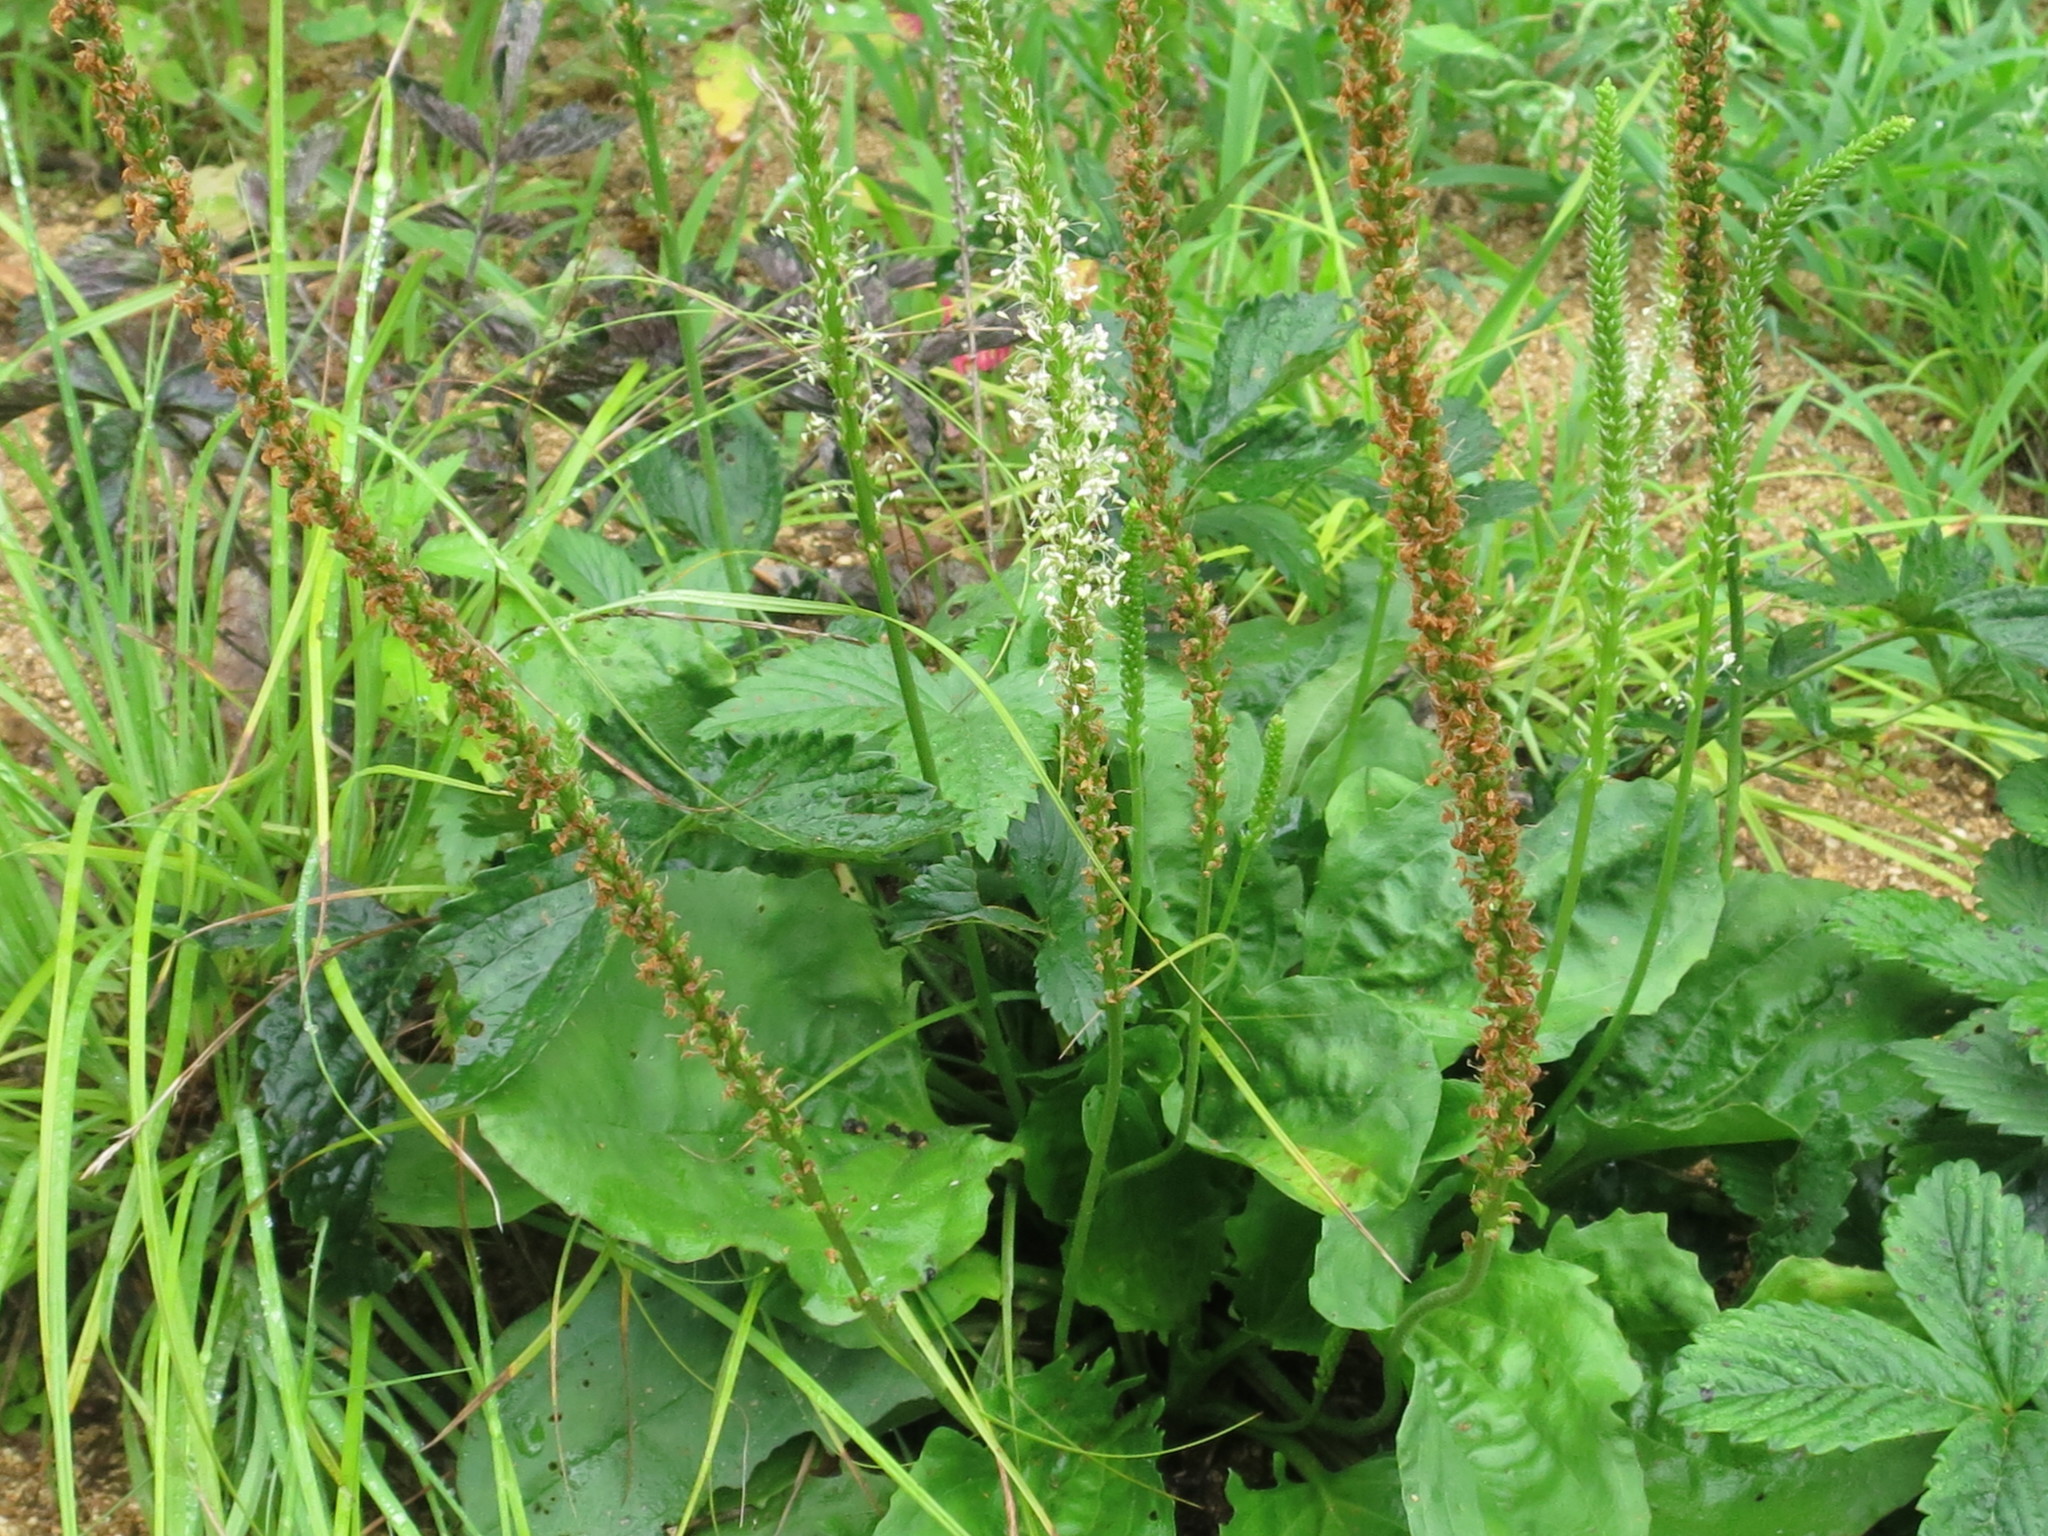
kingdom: Plantae
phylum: Tracheophyta
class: Magnoliopsida
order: Lamiales
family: Plantaginaceae
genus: Plantago
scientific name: Plantago major
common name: Common plantain
